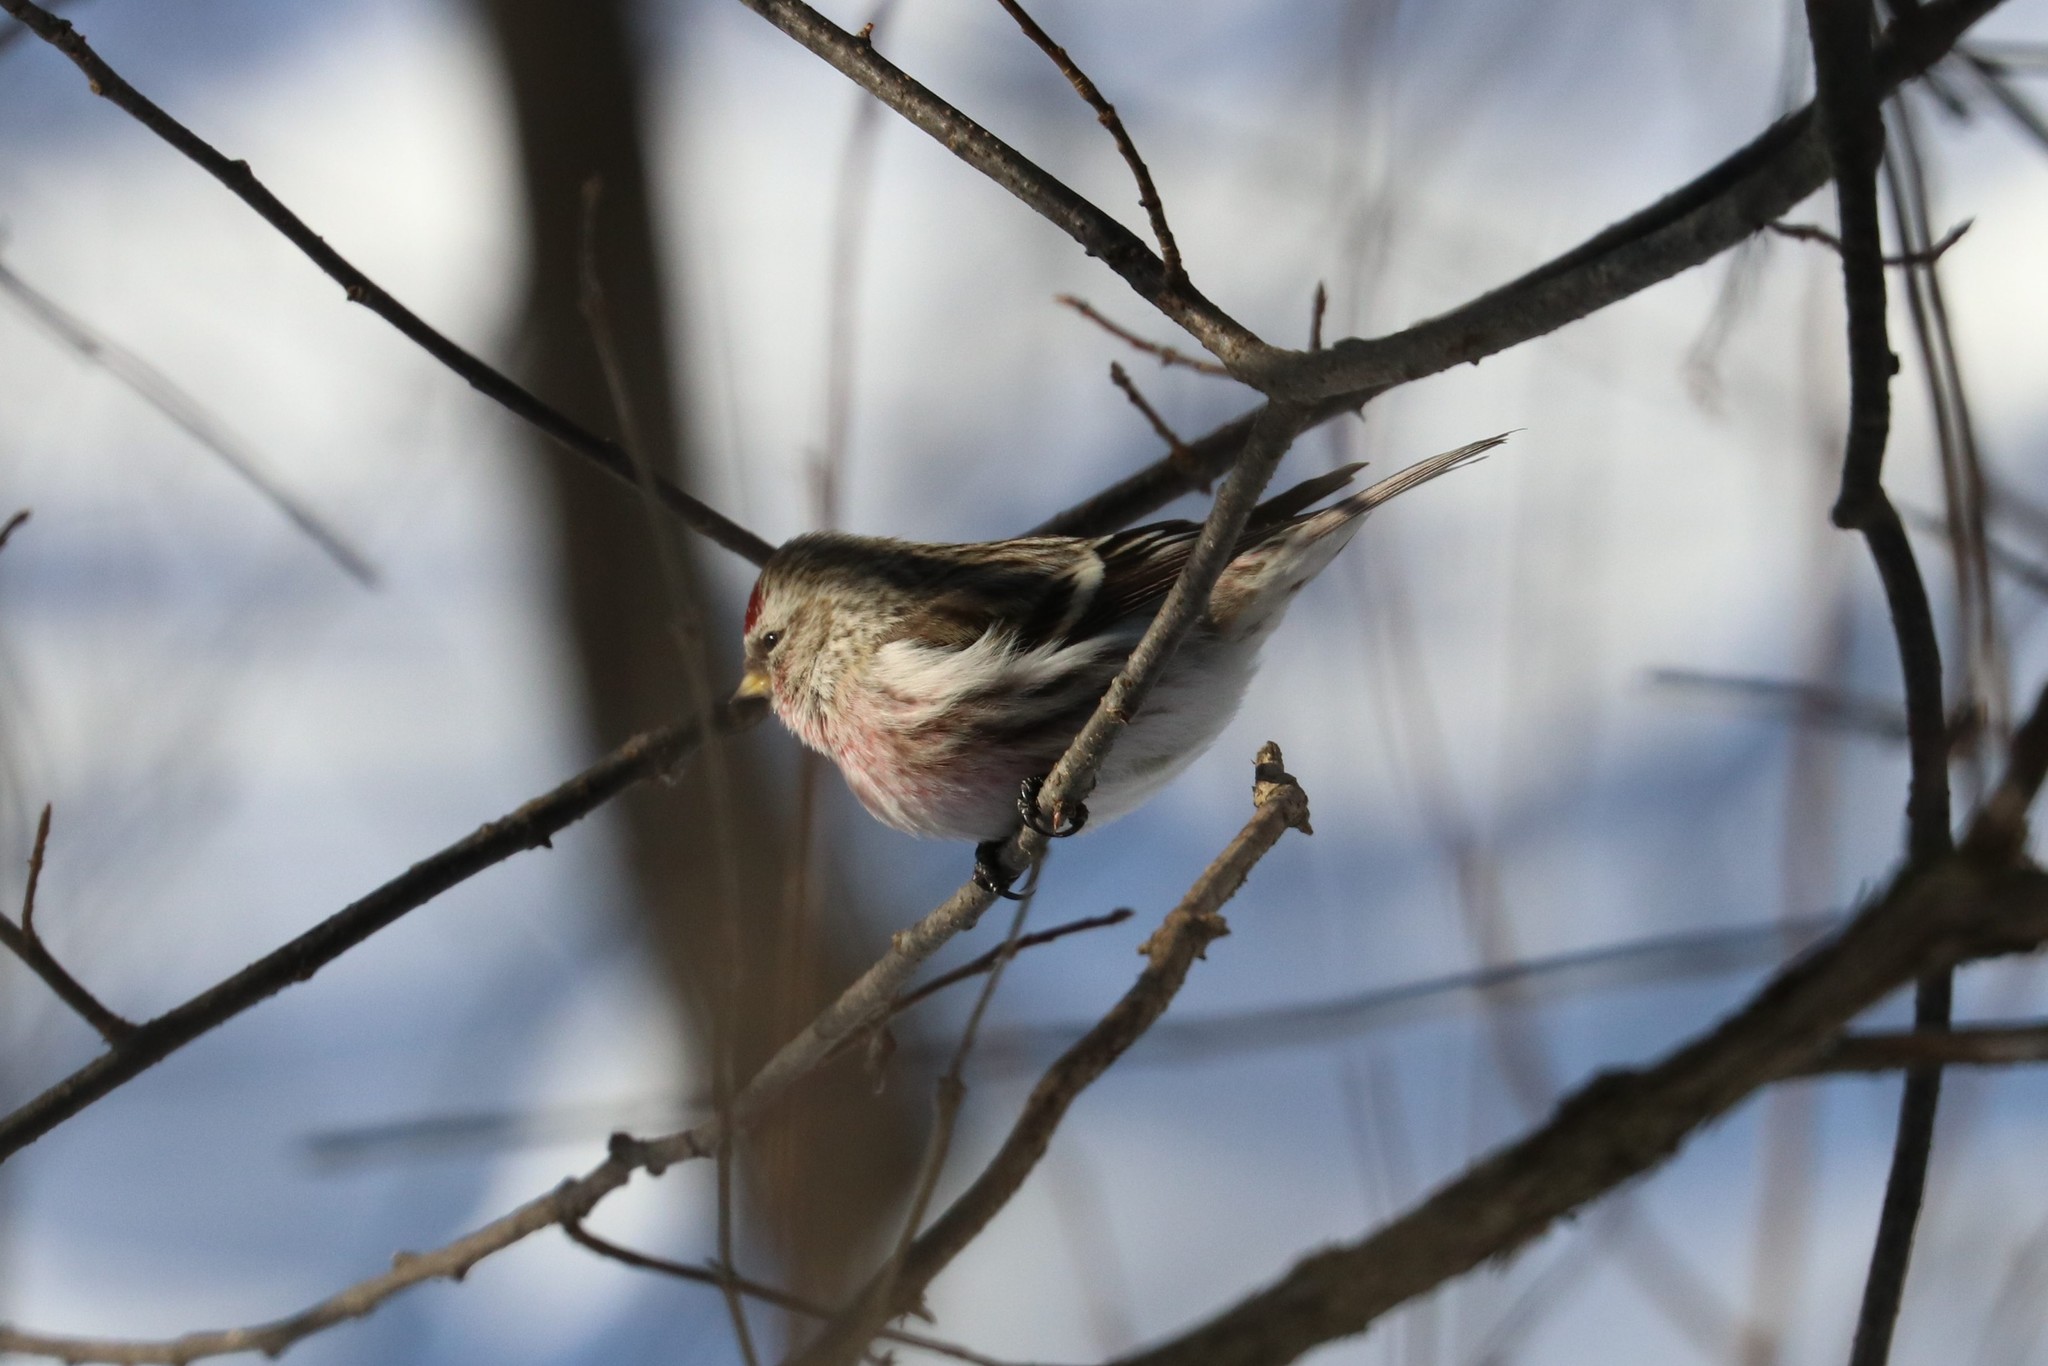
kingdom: Animalia
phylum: Chordata
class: Aves
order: Passeriformes
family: Fringillidae
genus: Acanthis
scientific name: Acanthis flammea
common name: Common redpoll
